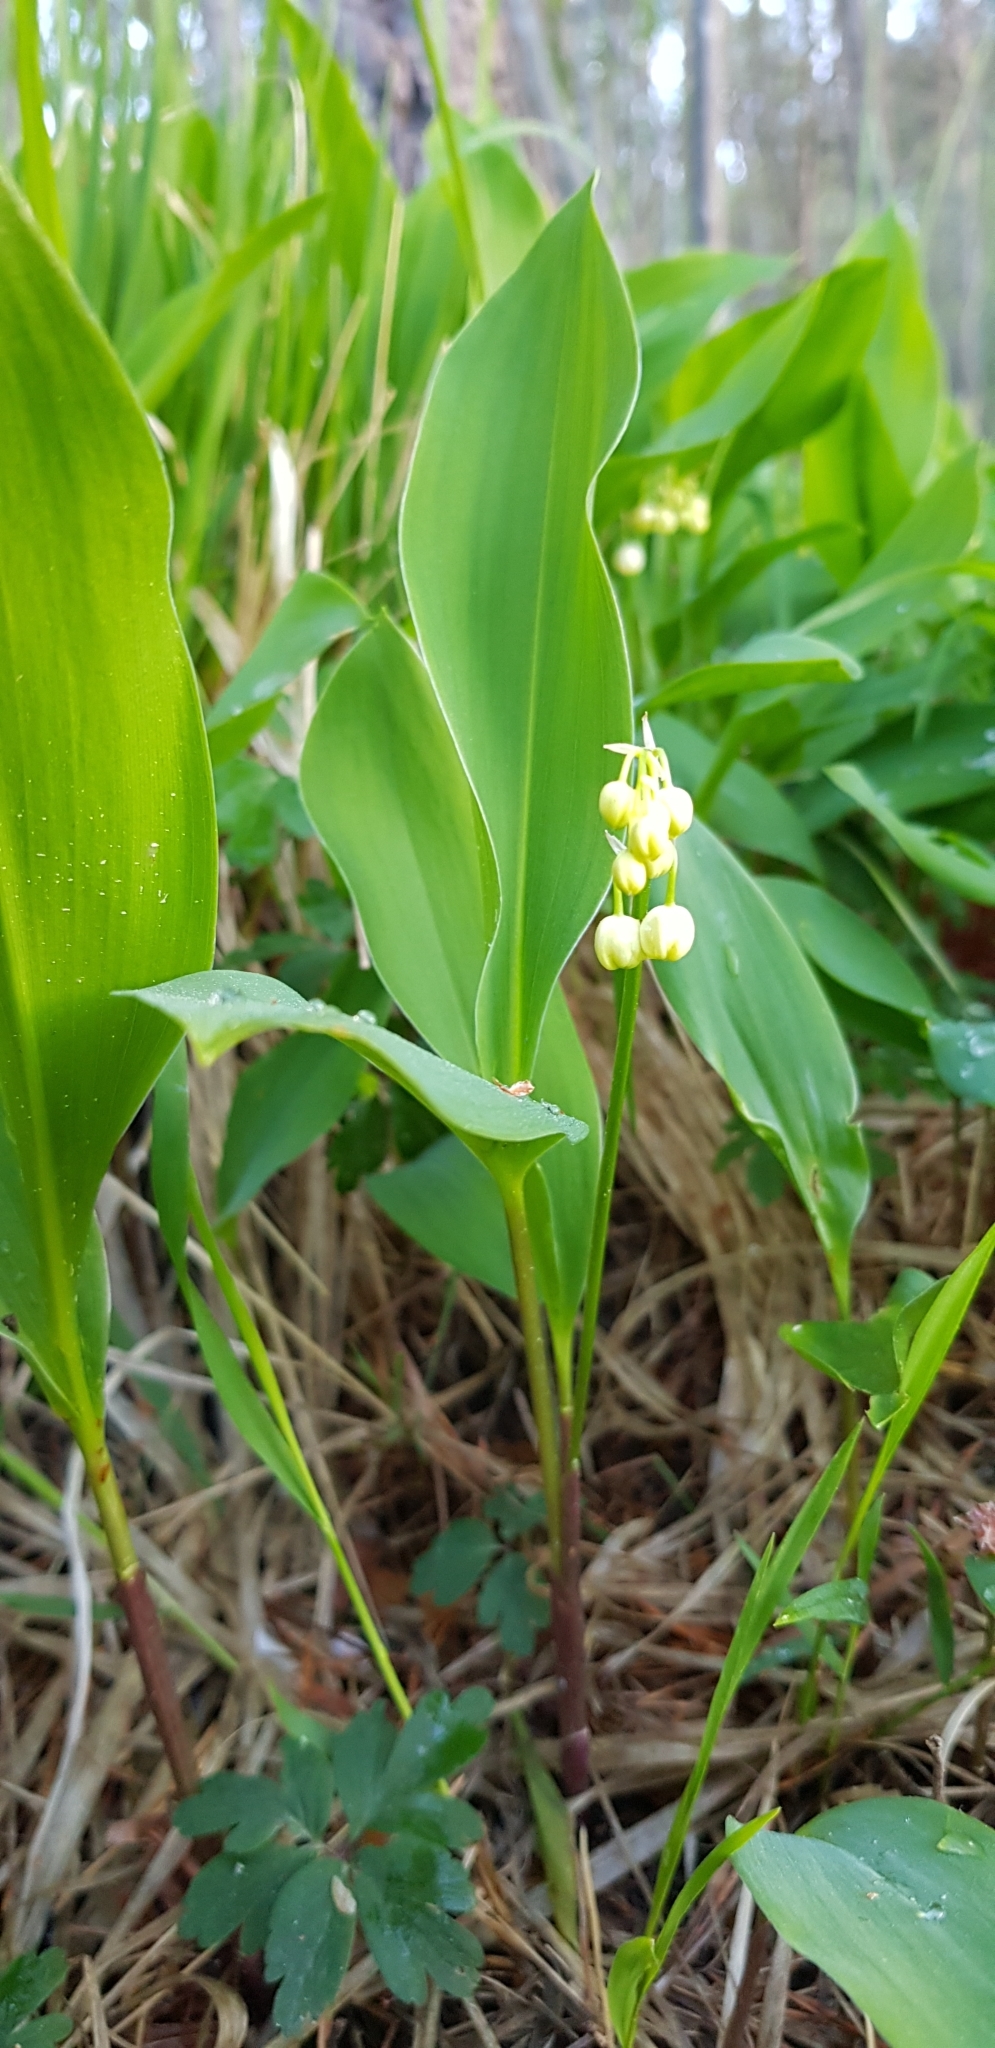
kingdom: Plantae
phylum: Tracheophyta
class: Liliopsida
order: Asparagales
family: Asparagaceae
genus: Convallaria
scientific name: Convallaria majalis
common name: Lily-of-the-valley
